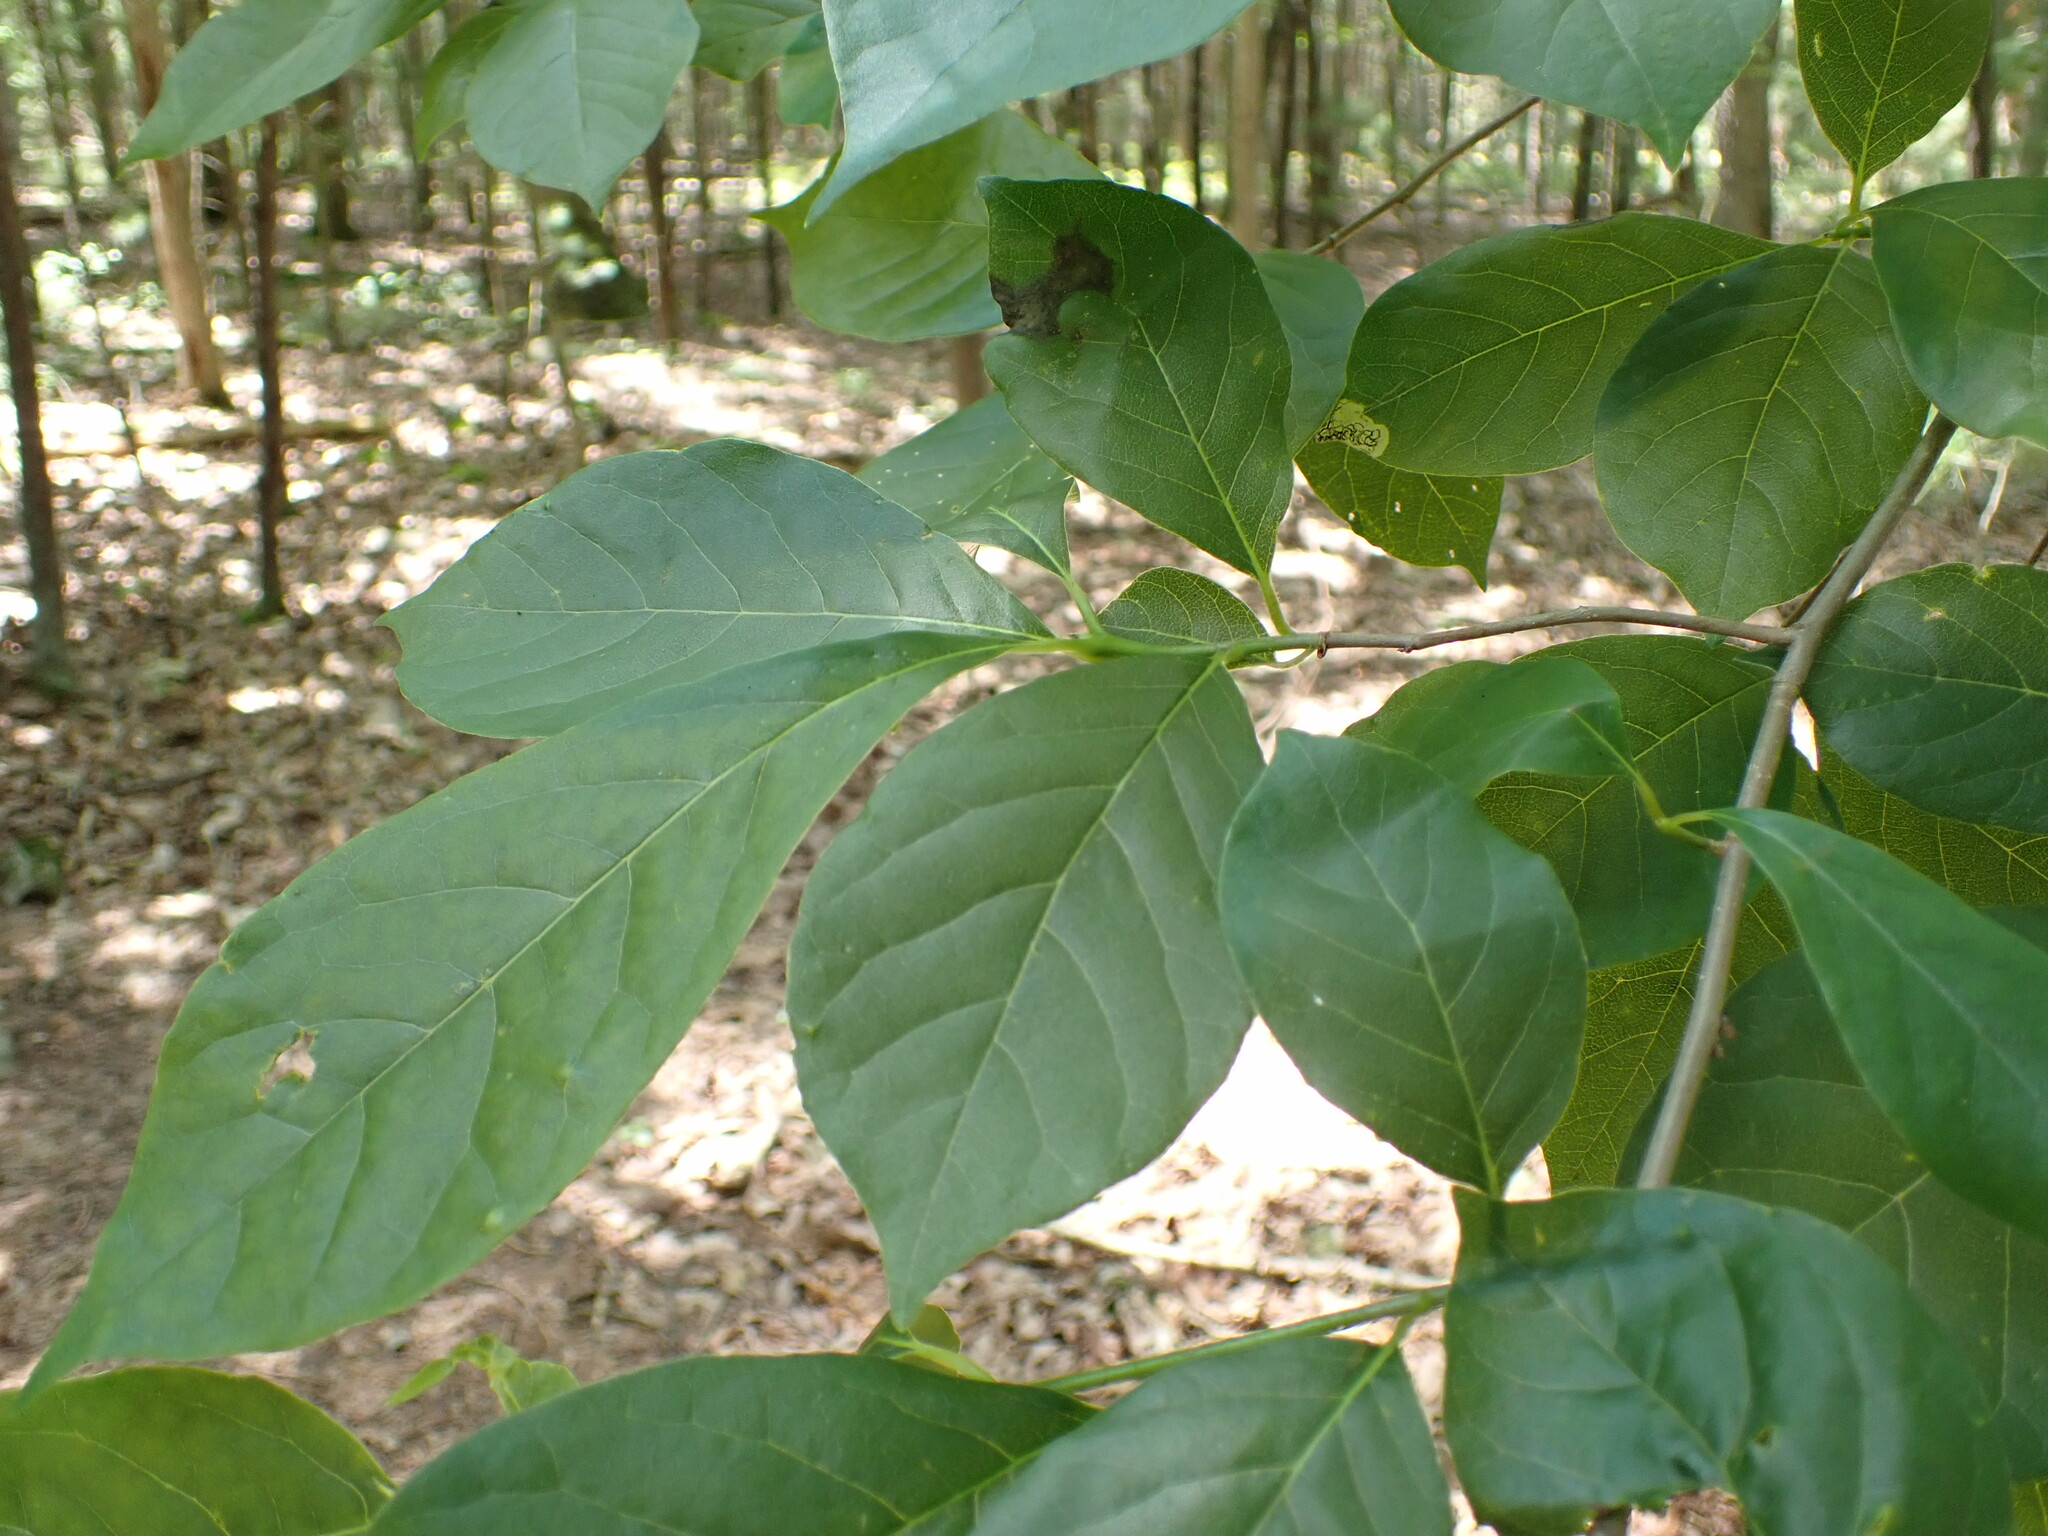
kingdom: Animalia
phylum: Arthropoda
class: Insecta
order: Lepidoptera
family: Nepticulidae
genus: Ectoedemia
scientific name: Ectoedemia nyssaefoliella
